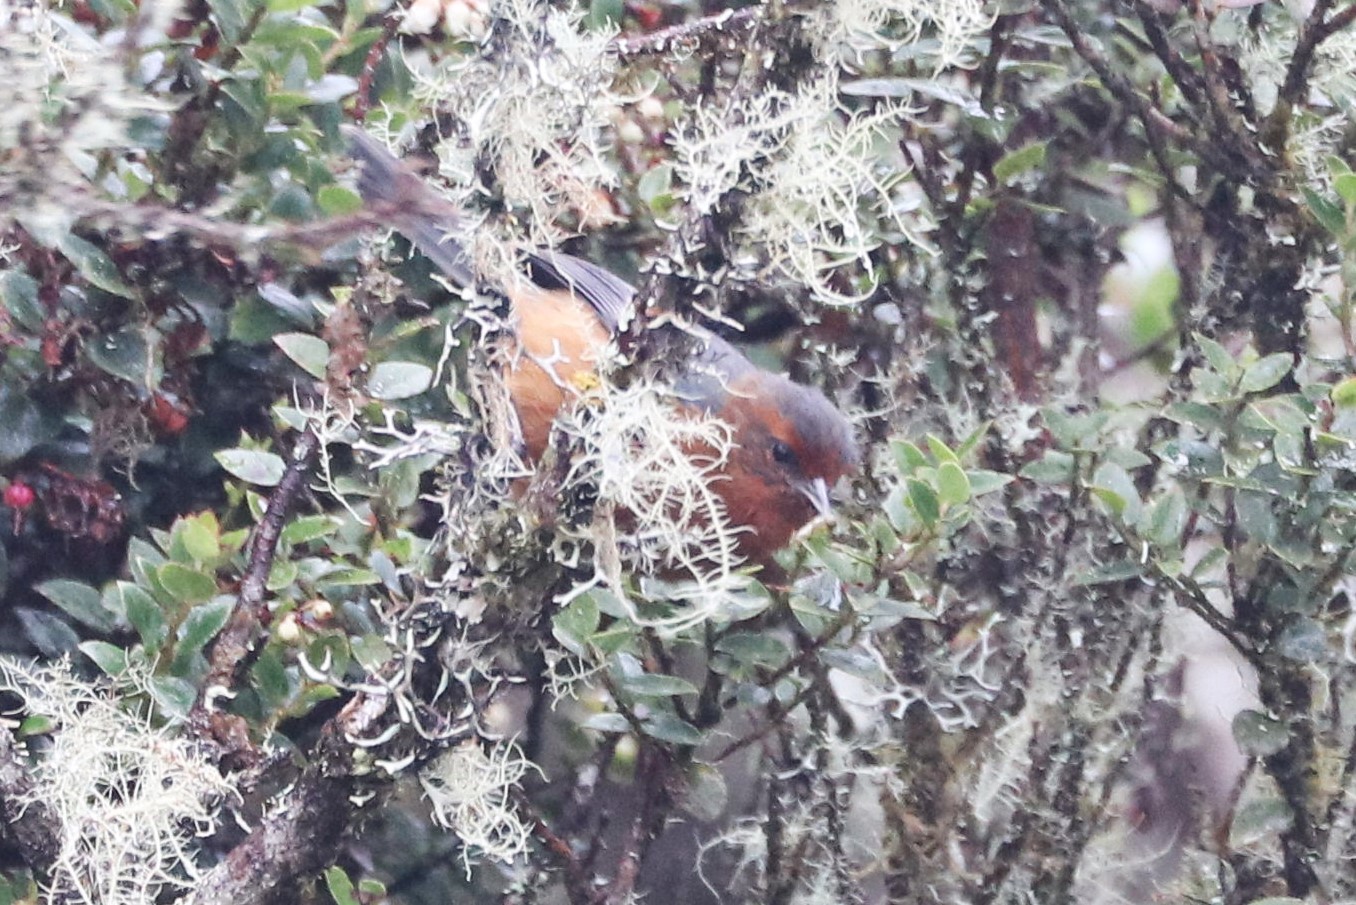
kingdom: Animalia
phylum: Chordata
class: Aves
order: Passeriformes
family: Thraupidae
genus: Conirostrum
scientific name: Conirostrum rufum
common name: Rufous-browed conebill
